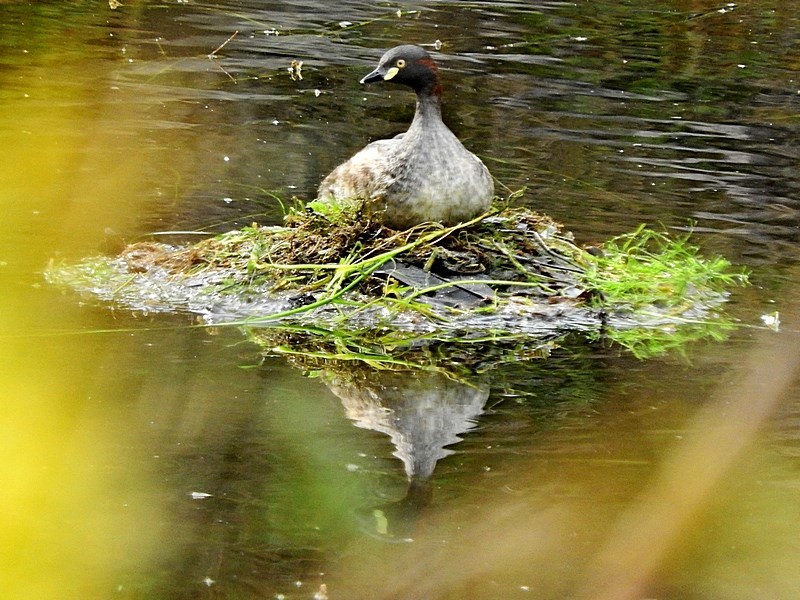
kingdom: Animalia
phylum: Chordata
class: Aves
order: Podicipediformes
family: Podicipedidae
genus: Tachybaptus
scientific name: Tachybaptus novaehollandiae
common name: Australasian grebe
